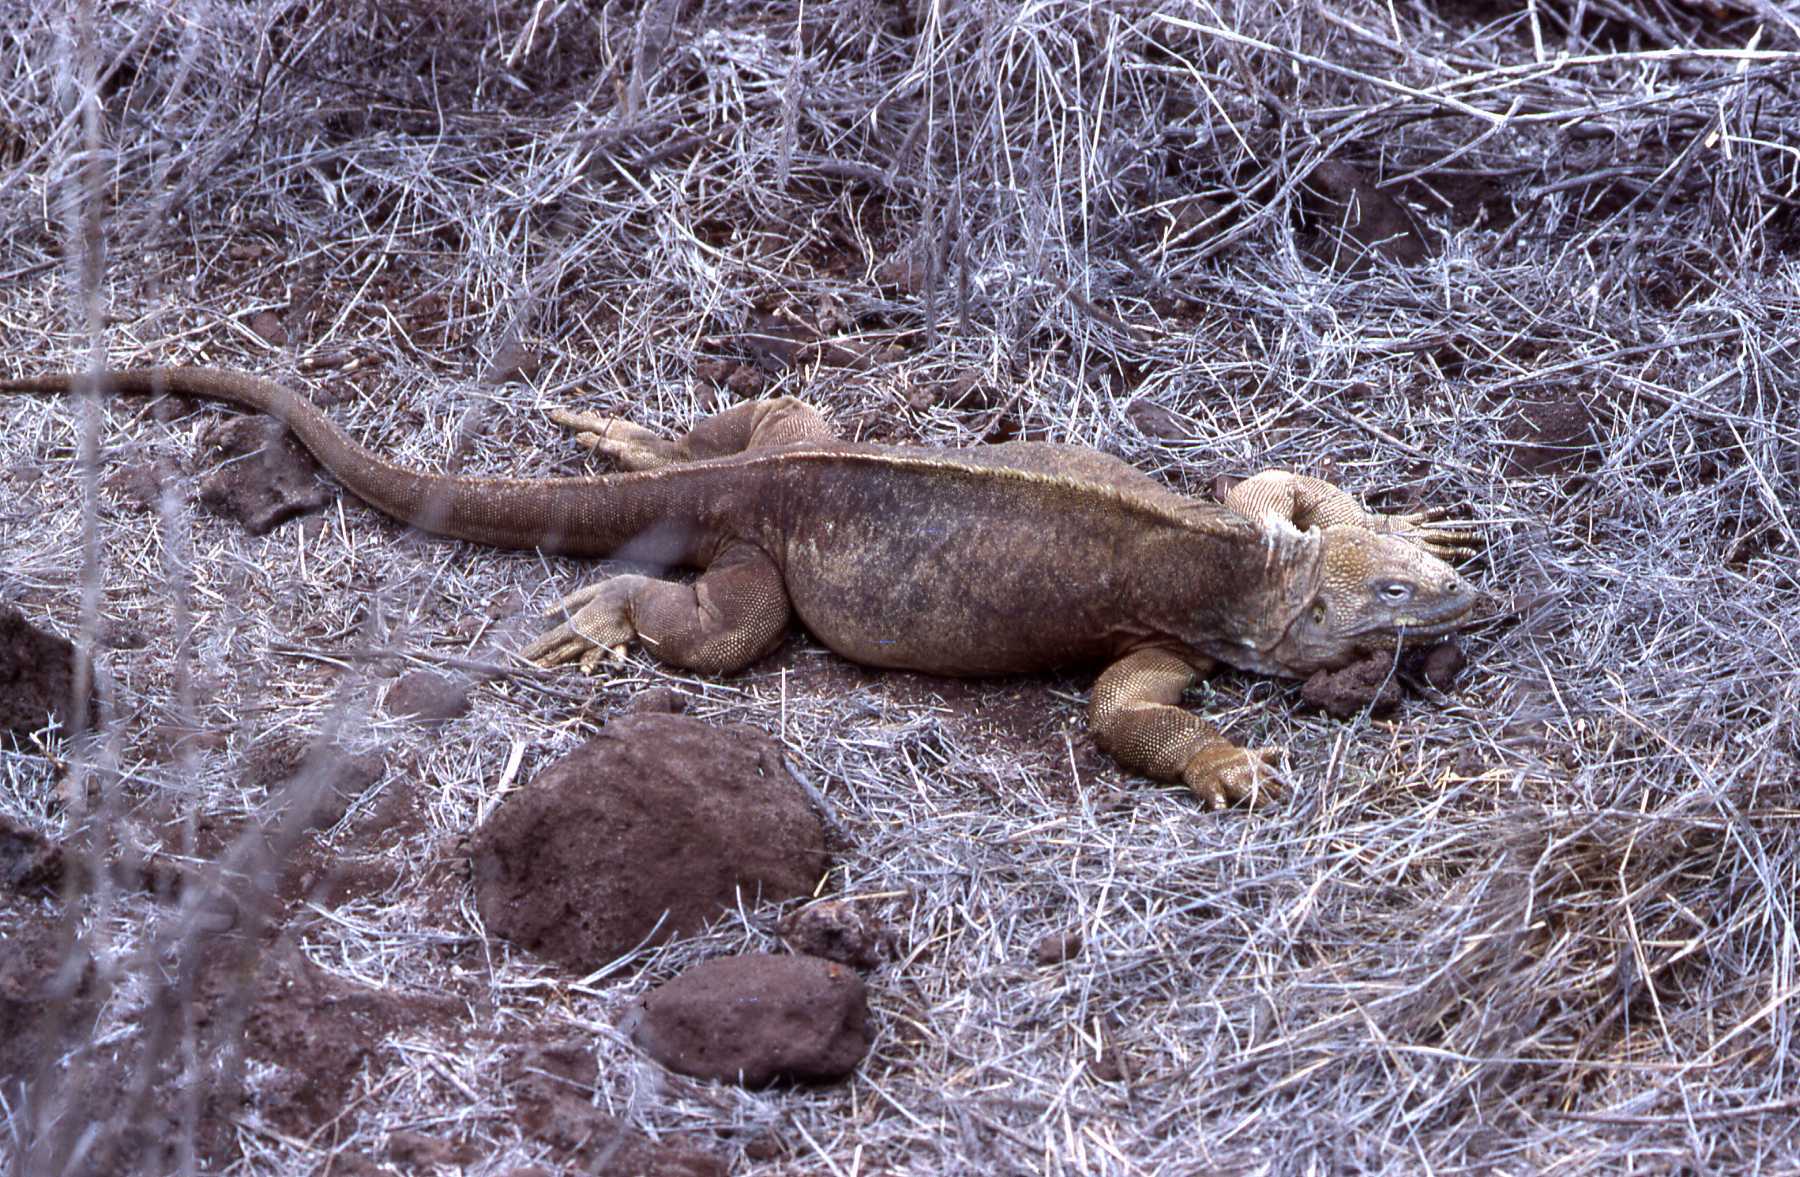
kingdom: Animalia
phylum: Chordata
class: Squamata
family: Iguanidae
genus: Conolophus
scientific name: Conolophus pallidus
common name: Santa fe land iguana
